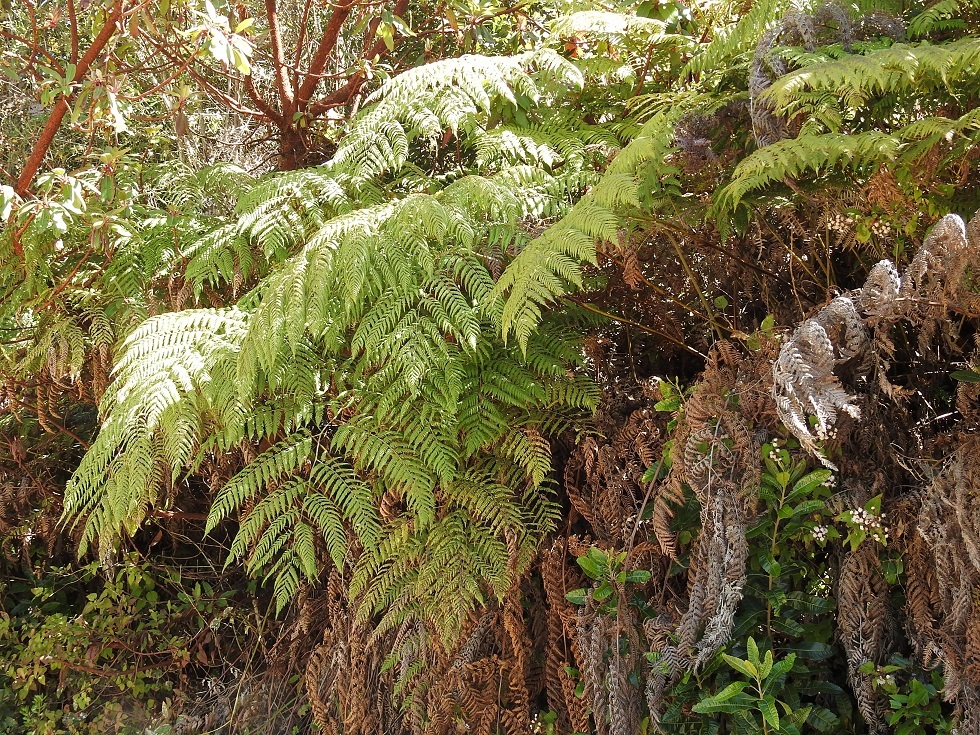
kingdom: Plantae
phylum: Tracheophyta
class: Polypodiopsida
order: Cyatheales
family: Dicksoniaceae
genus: Lophosoria
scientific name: Lophosoria quadripinnata
